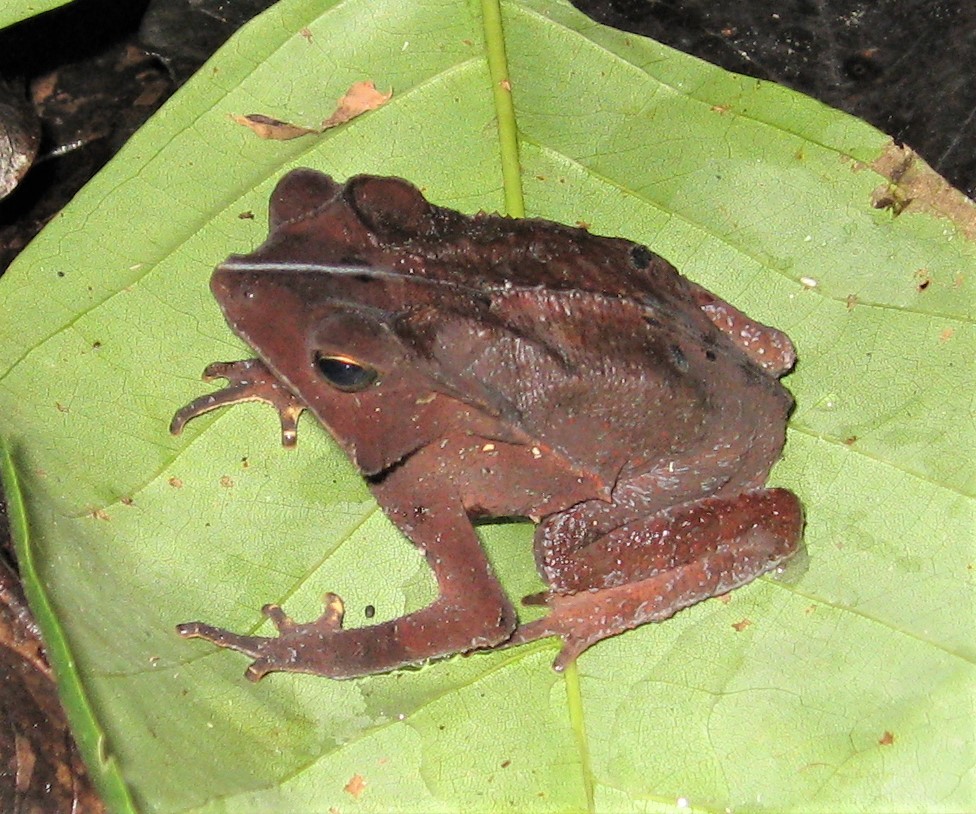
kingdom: Animalia
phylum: Chordata
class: Amphibia
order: Anura
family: Bufonidae
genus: Rhinella
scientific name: Rhinella margaritifera
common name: Mitred toad
